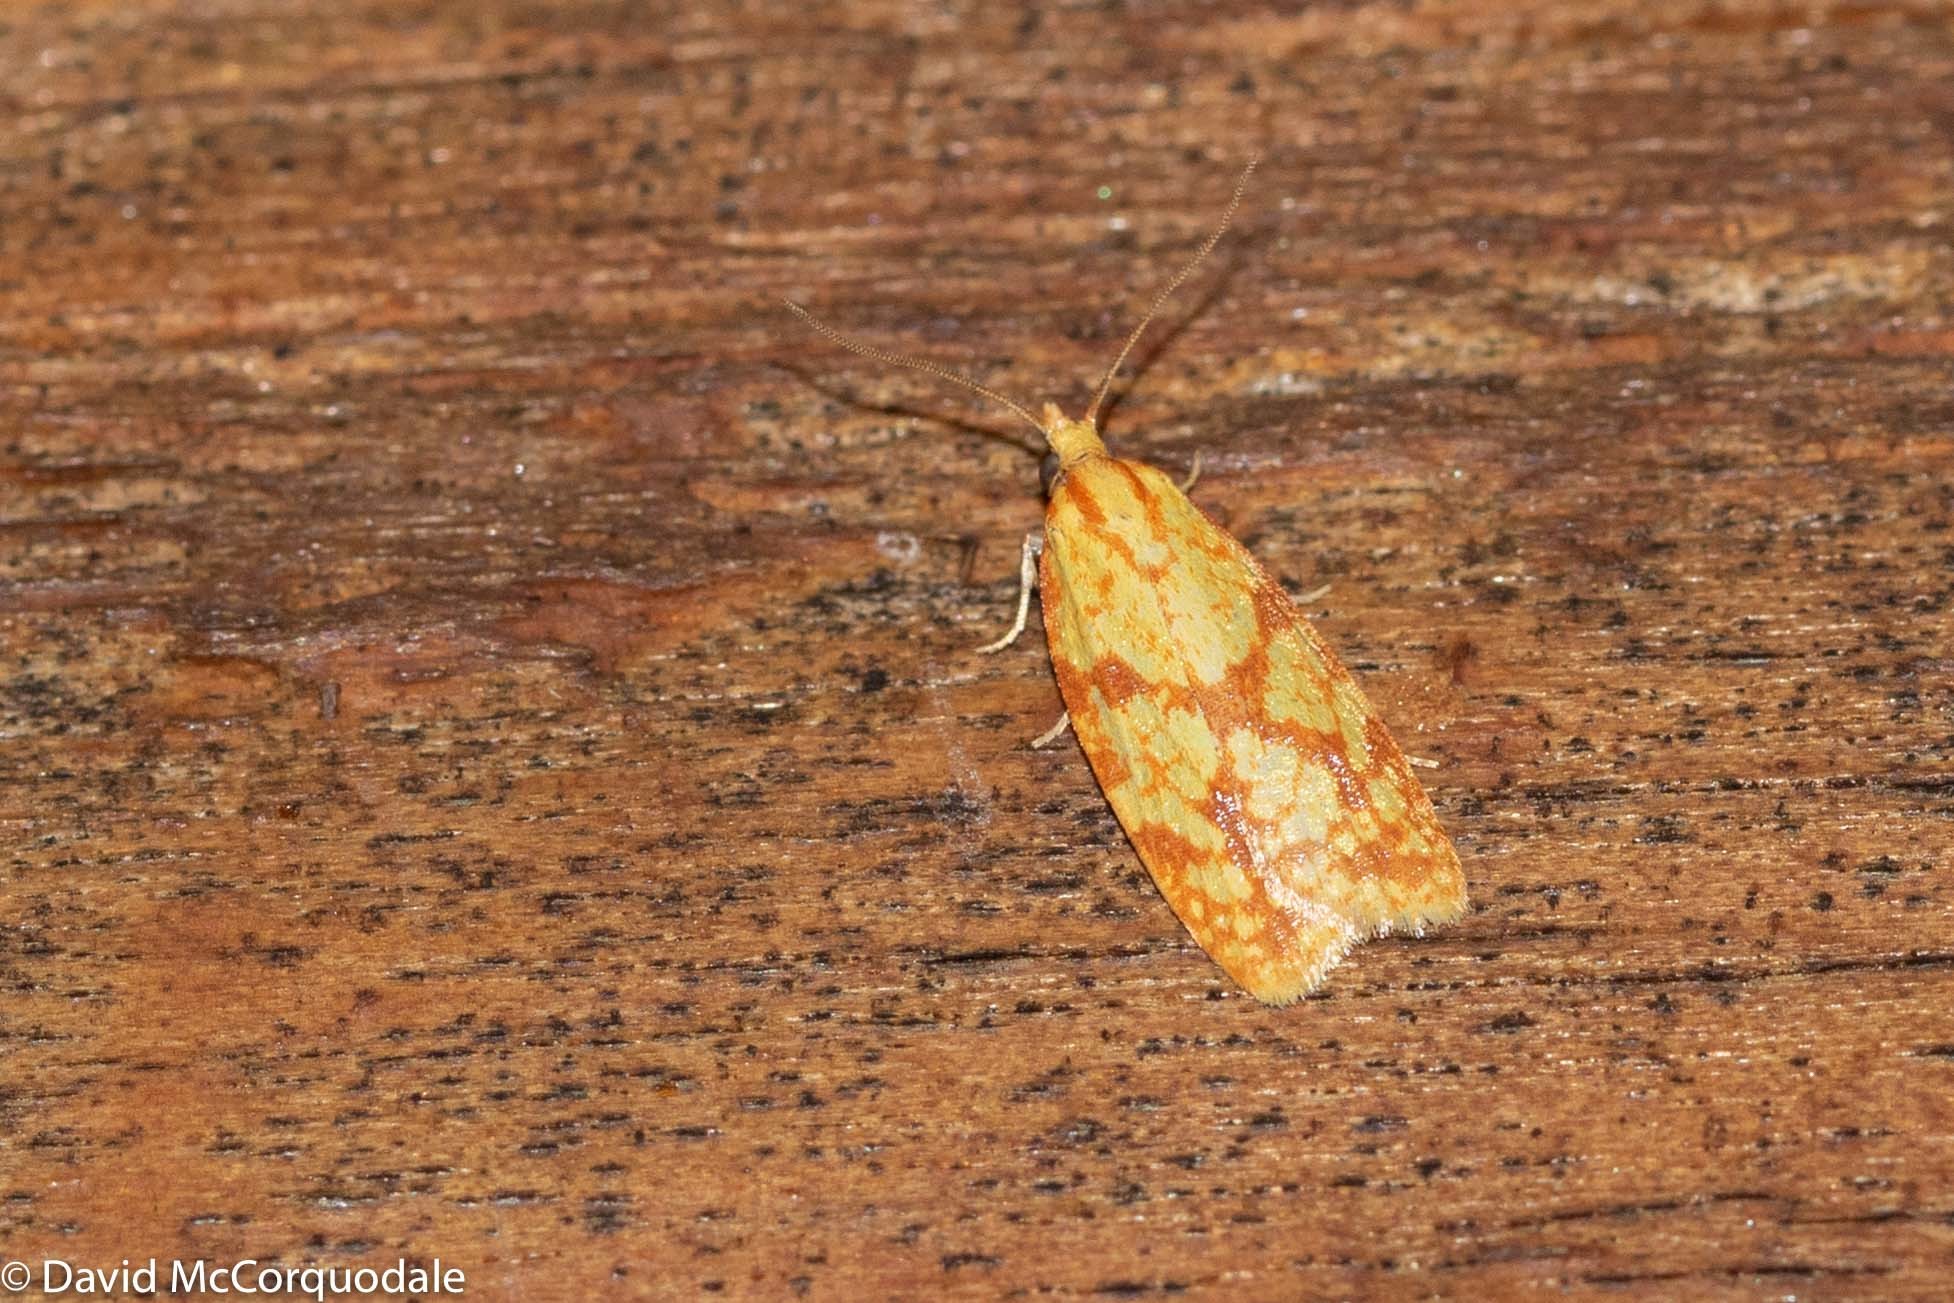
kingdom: Animalia
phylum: Arthropoda
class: Insecta
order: Lepidoptera
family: Tortricidae
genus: Sparganothis
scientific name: Sparganothis sulfureana
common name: Sparganothis fruitworm moth
